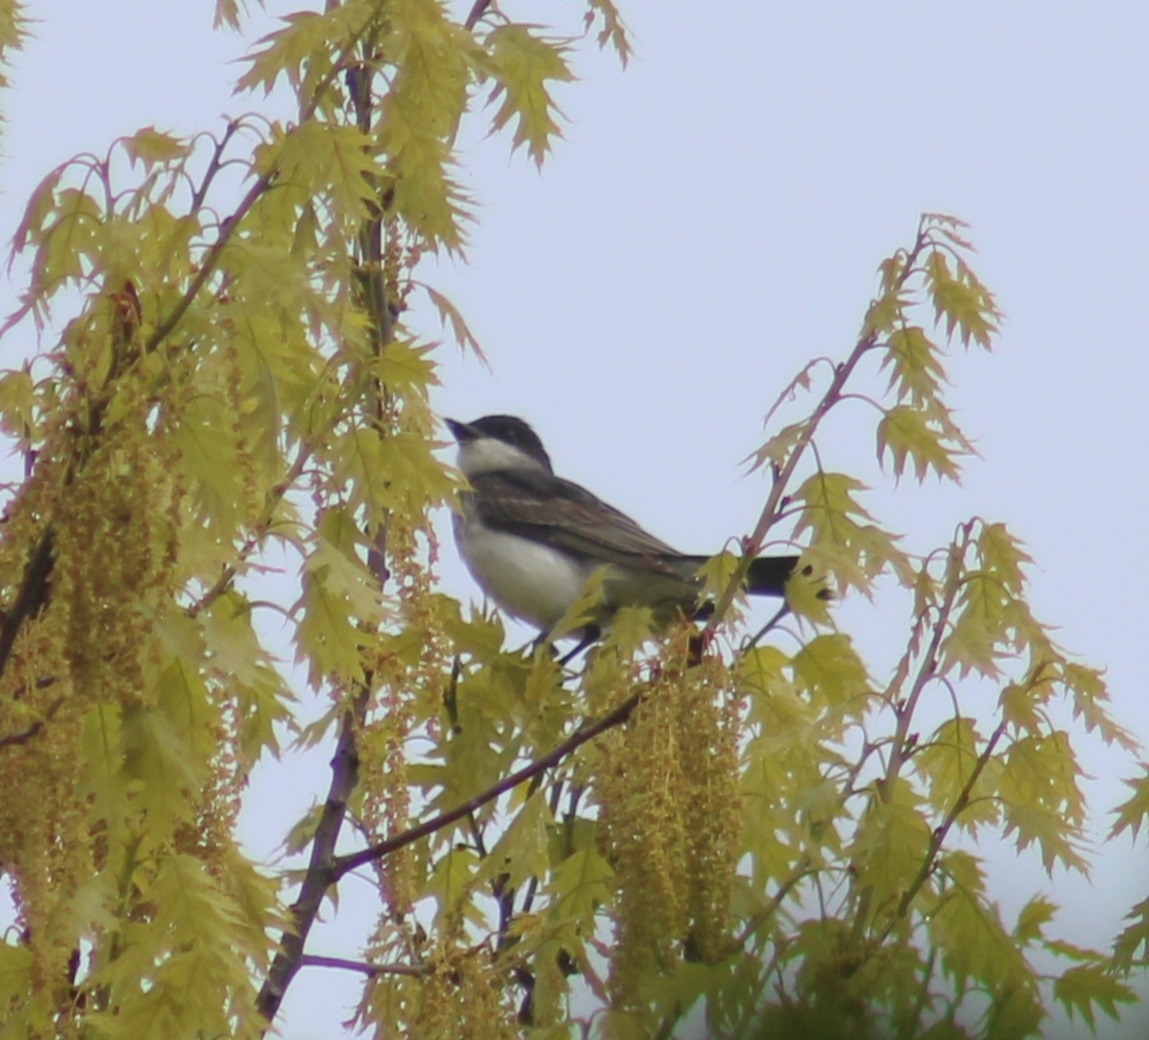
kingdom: Animalia
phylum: Chordata
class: Aves
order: Passeriformes
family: Tyrannidae
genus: Tyrannus
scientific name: Tyrannus tyrannus
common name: Eastern kingbird
